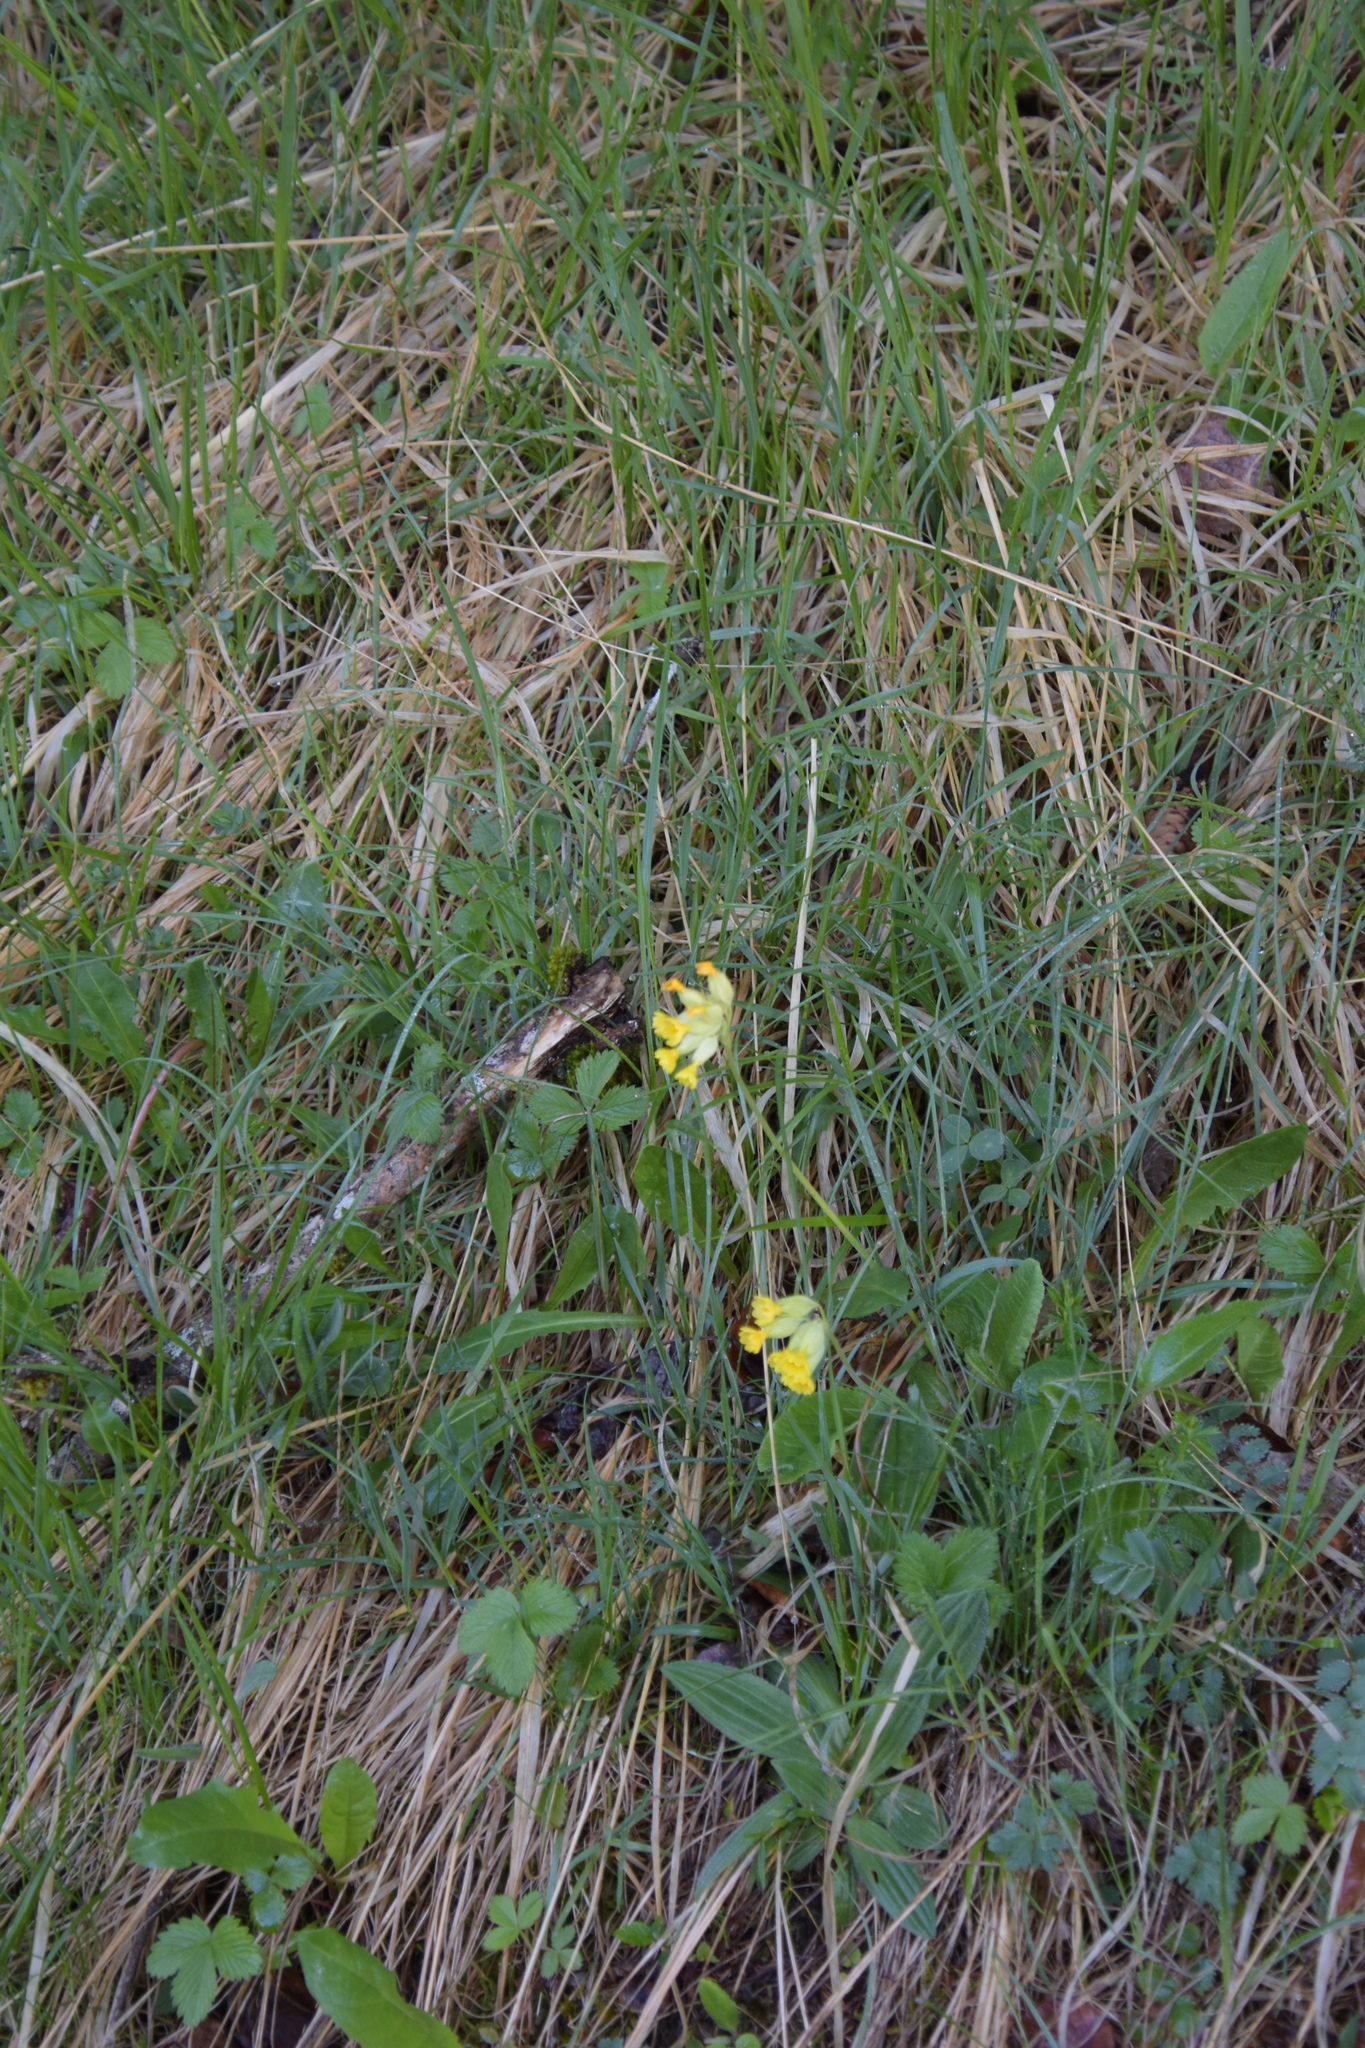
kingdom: Plantae
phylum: Tracheophyta
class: Magnoliopsida
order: Ericales
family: Primulaceae
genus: Primula
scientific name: Primula veris
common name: Cowslip
